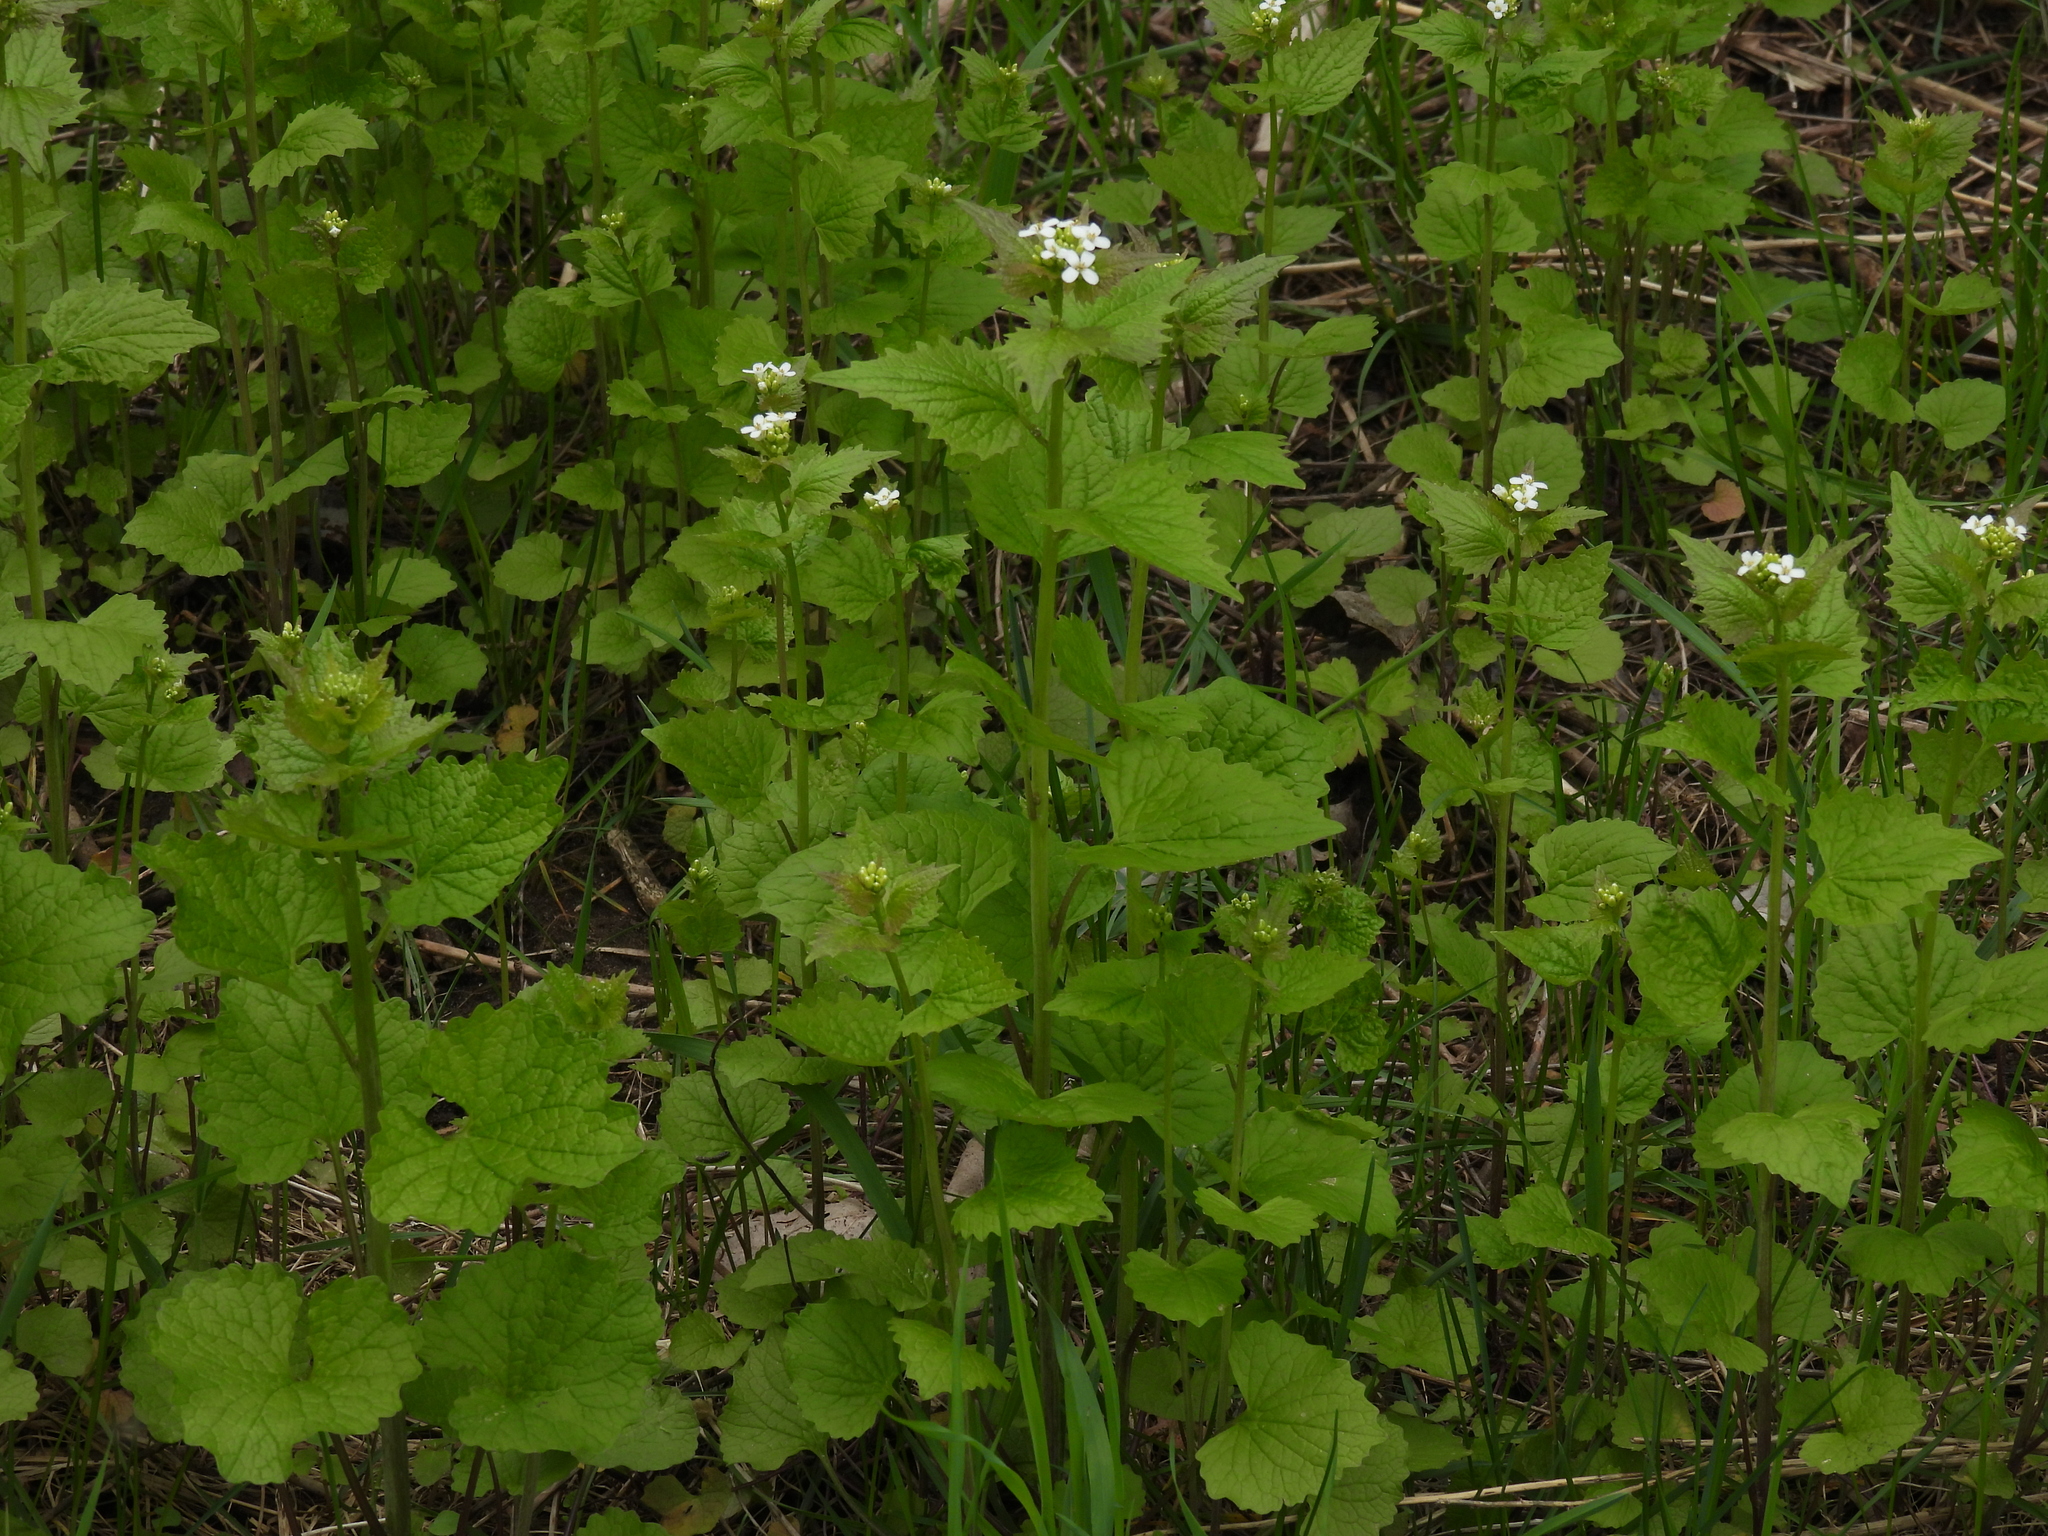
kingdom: Plantae
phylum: Tracheophyta
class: Magnoliopsida
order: Brassicales
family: Brassicaceae
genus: Alliaria
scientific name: Alliaria petiolata
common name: Garlic mustard
